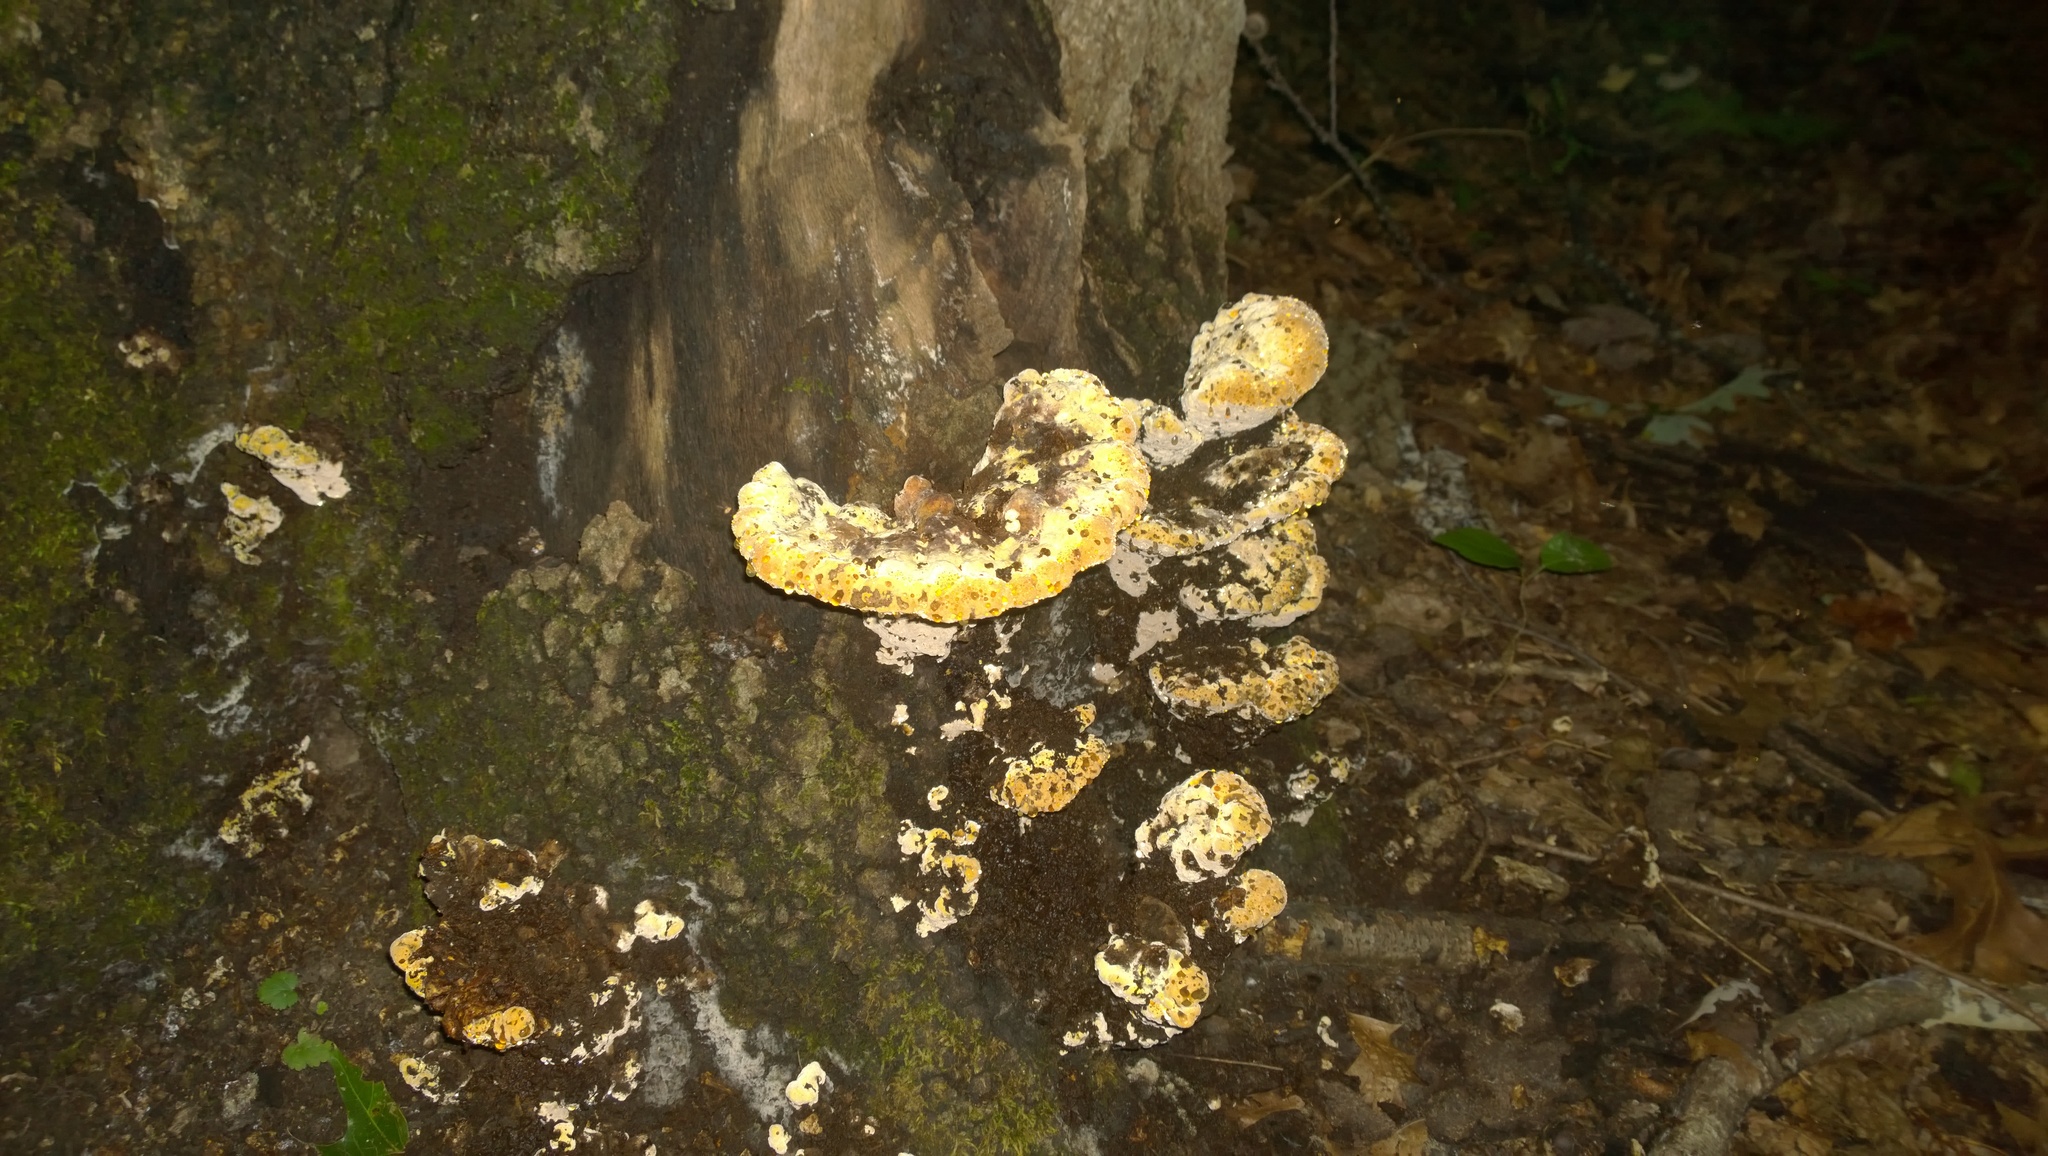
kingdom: Fungi
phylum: Basidiomycota
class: Agaricomycetes
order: Hymenochaetales
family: Hymenochaetaceae
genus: Pseudoinonotus
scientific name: Pseudoinonotus dryadeus
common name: Oak bracket
